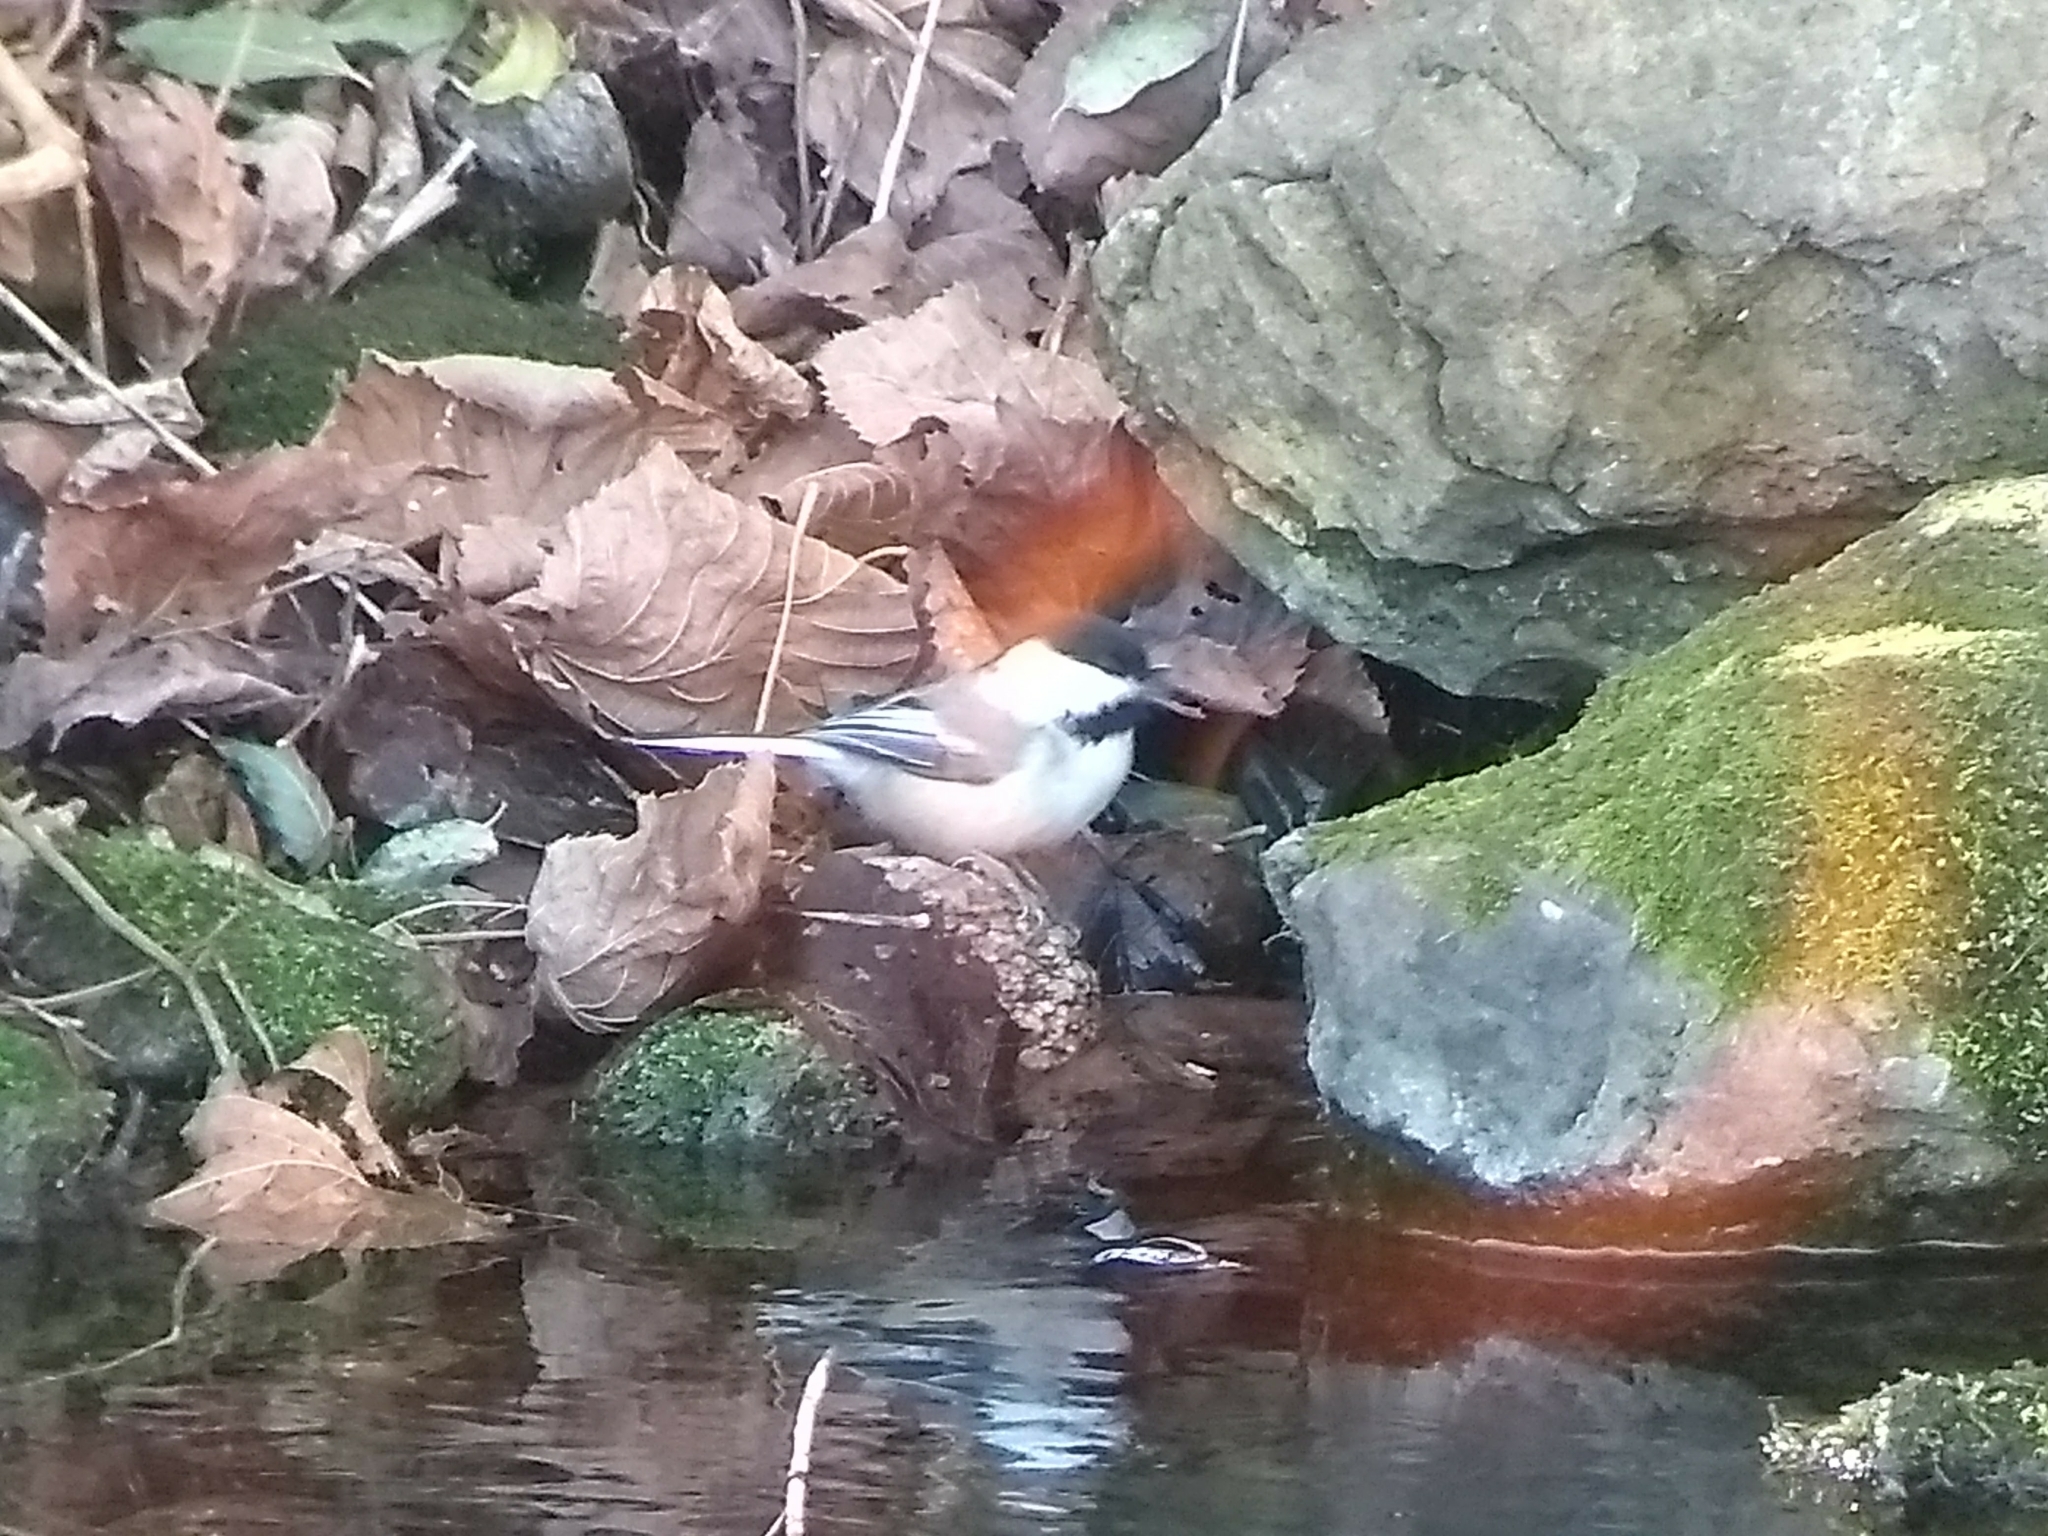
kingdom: Animalia
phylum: Chordata
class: Aves
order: Passeriformes
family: Paridae
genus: Poecile
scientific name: Poecile atricapillus
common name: Black-capped chickadee
